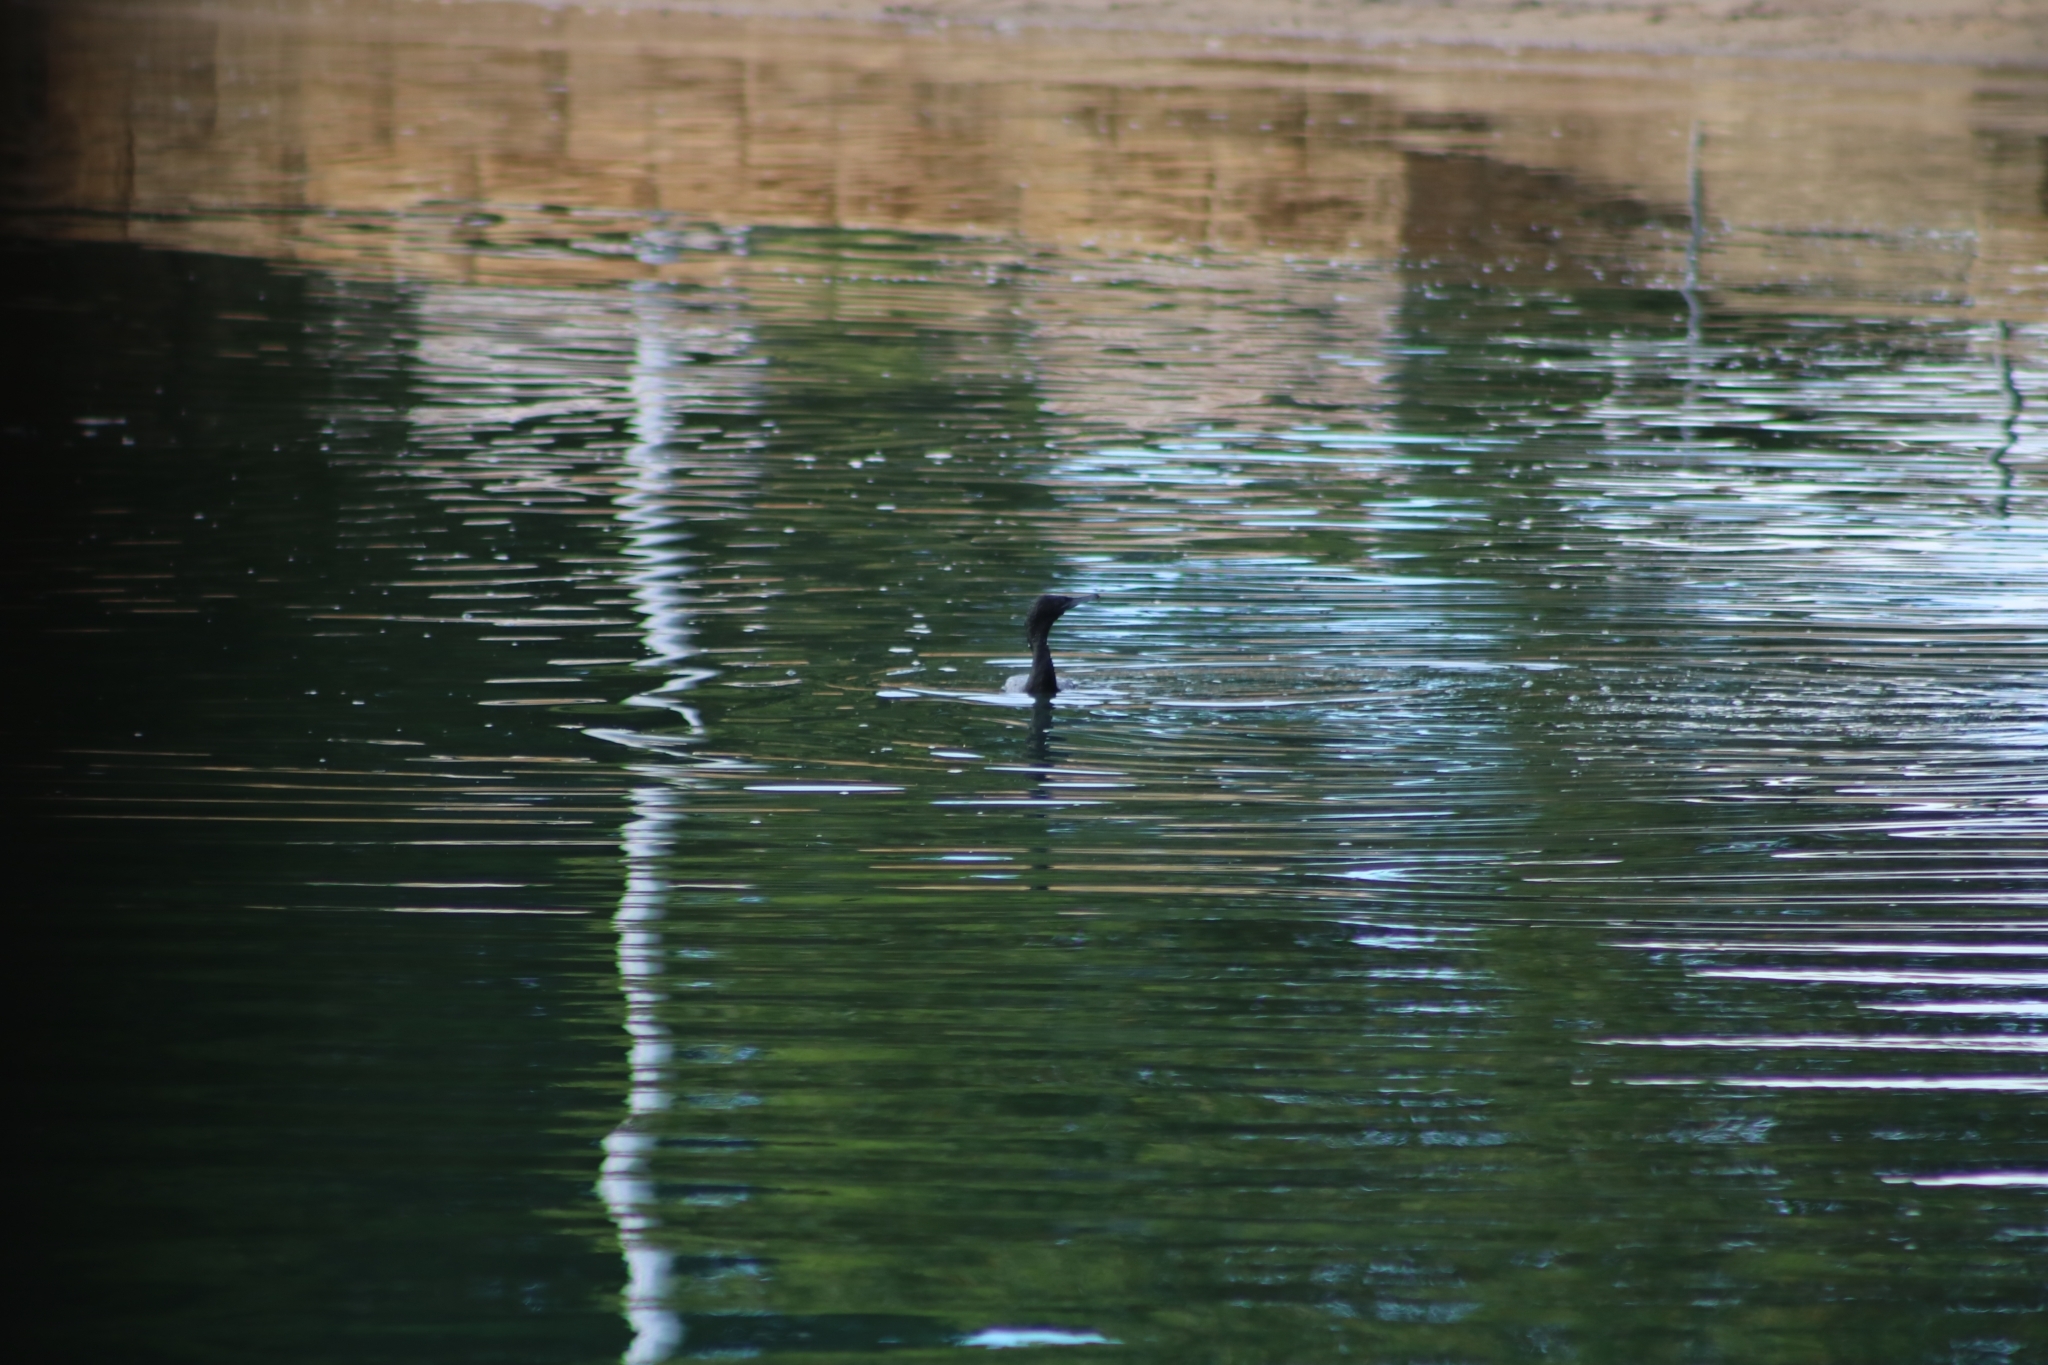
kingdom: Animalia
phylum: Chordata
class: Aves
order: Suliformes
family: Phalacrocoracidae
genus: Phalacrocorax
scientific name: Phalacrocorax sulcirostris
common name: Little black cormorant
